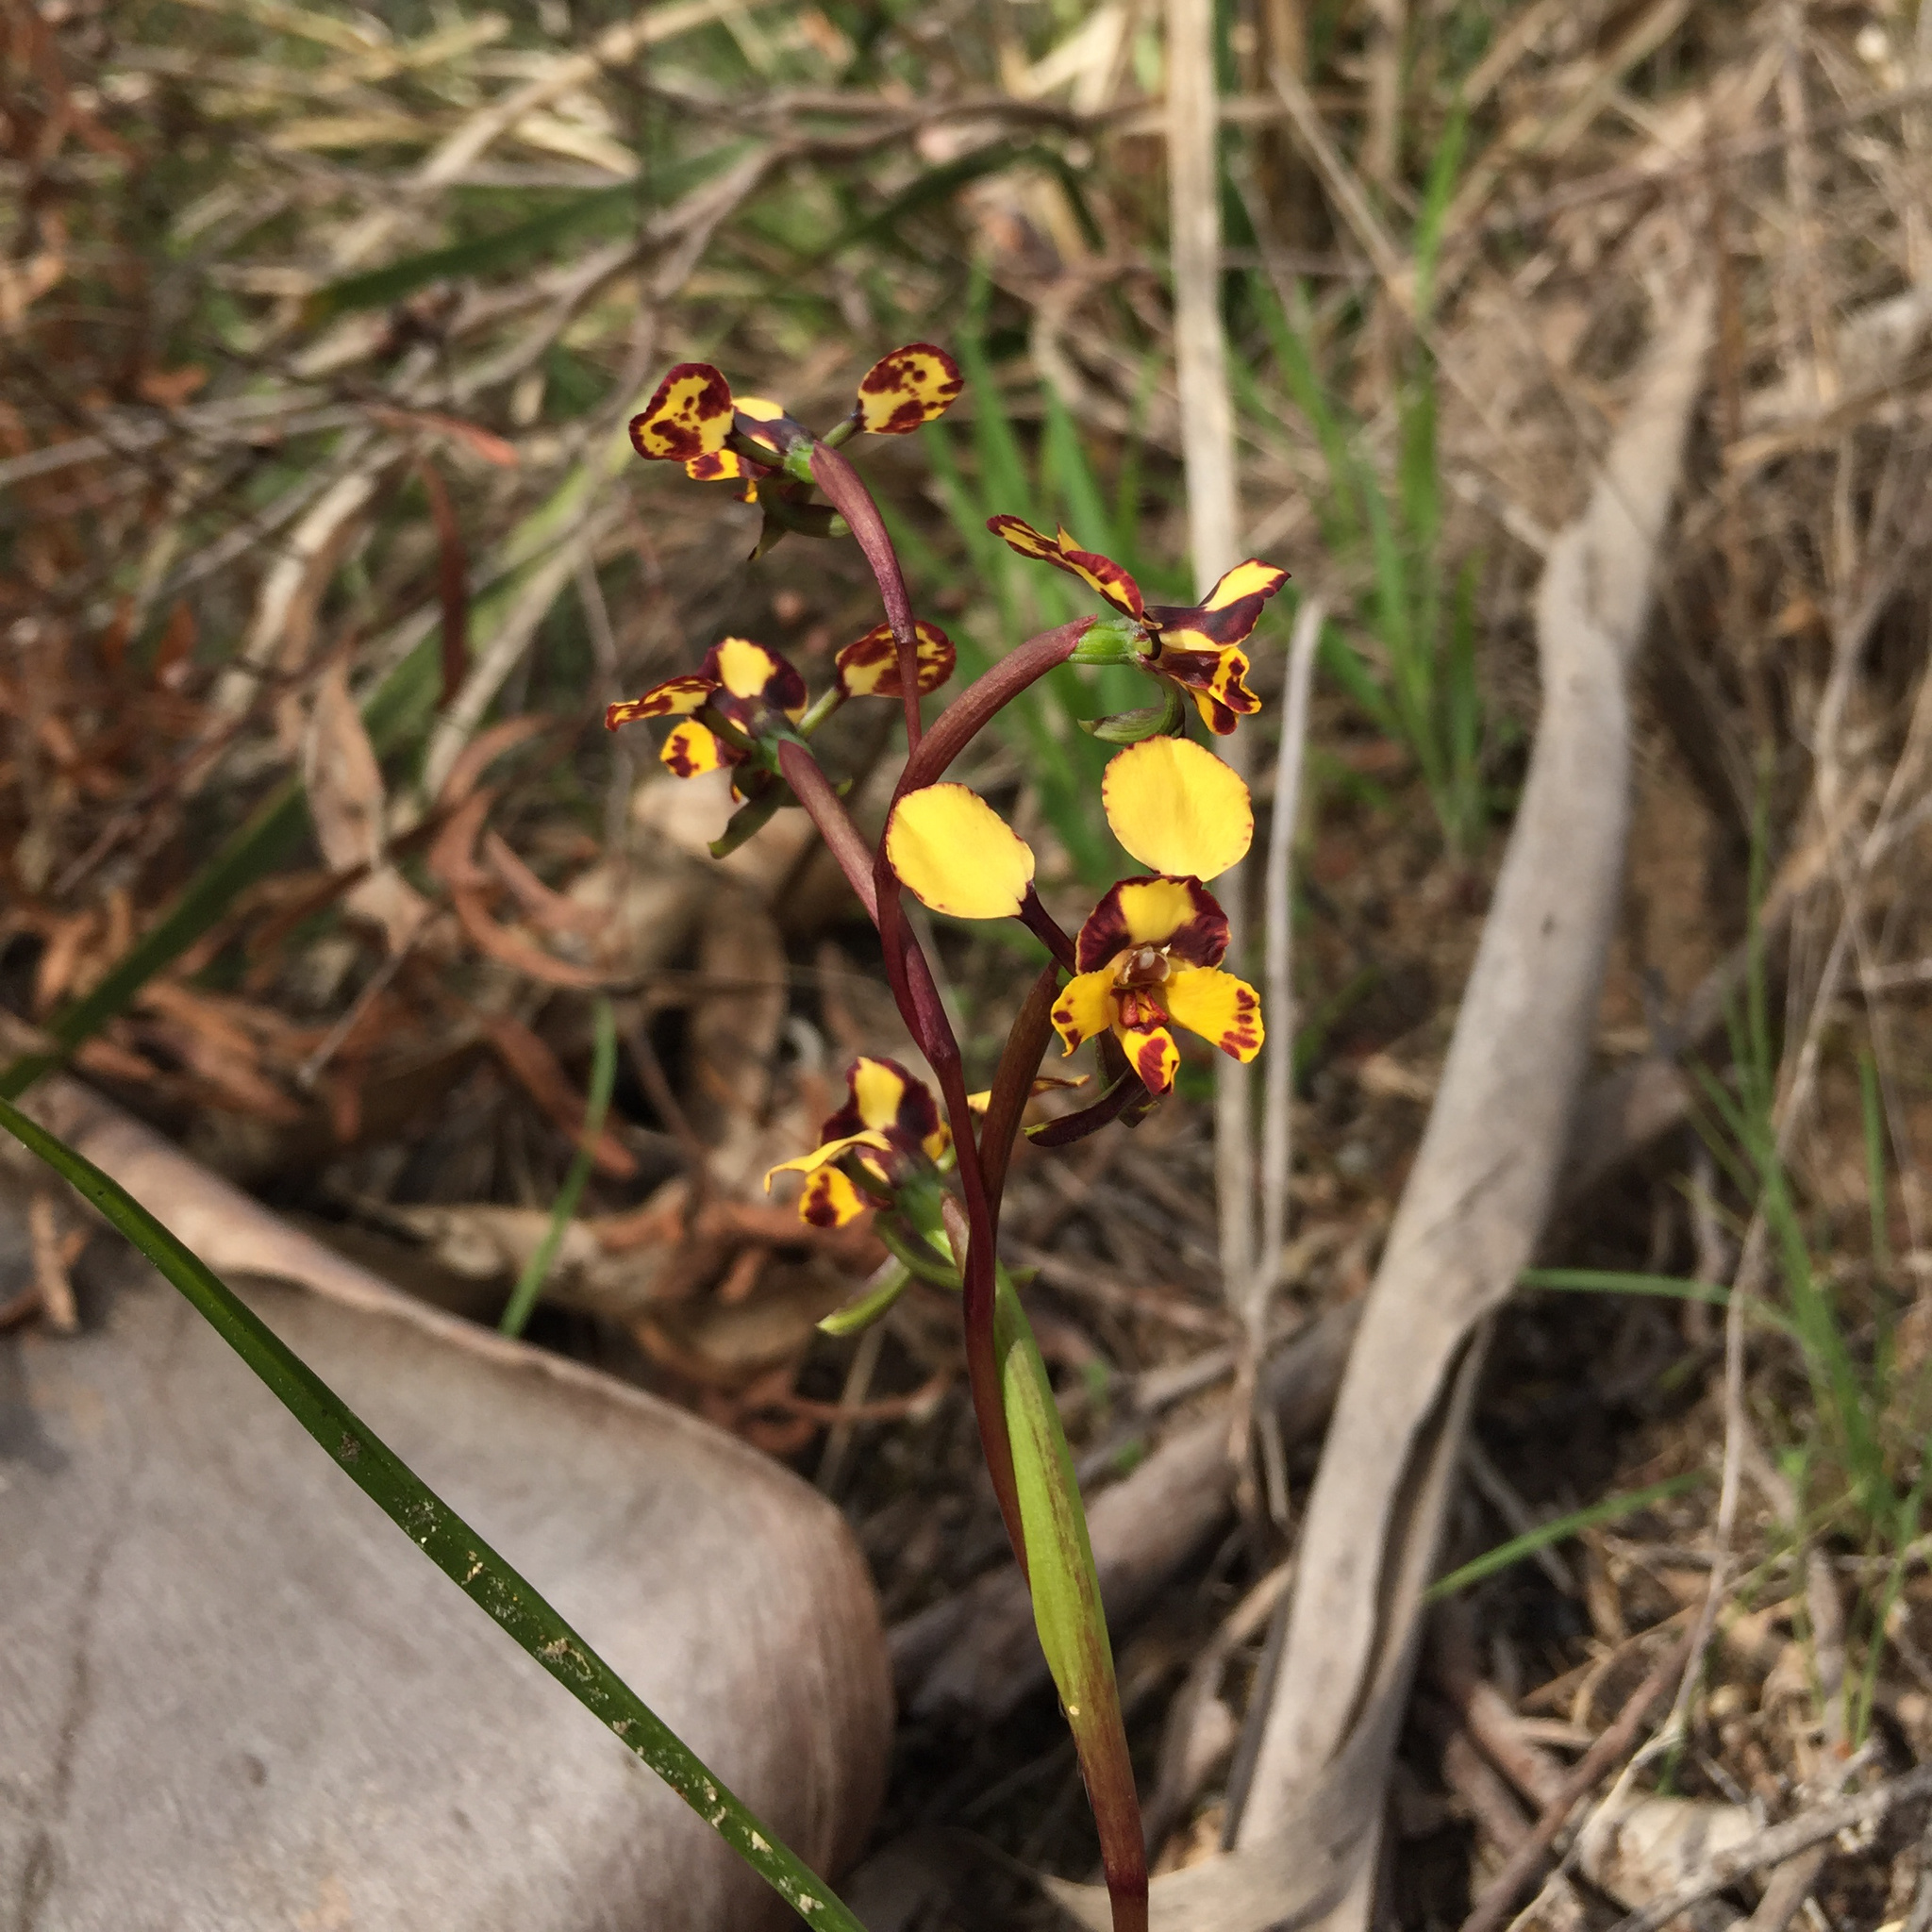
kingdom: Plantae
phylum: Tracheophyta
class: Liliopsida
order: Asparagales
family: Orchidaceae
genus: Diuris
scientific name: Diuris pardina
